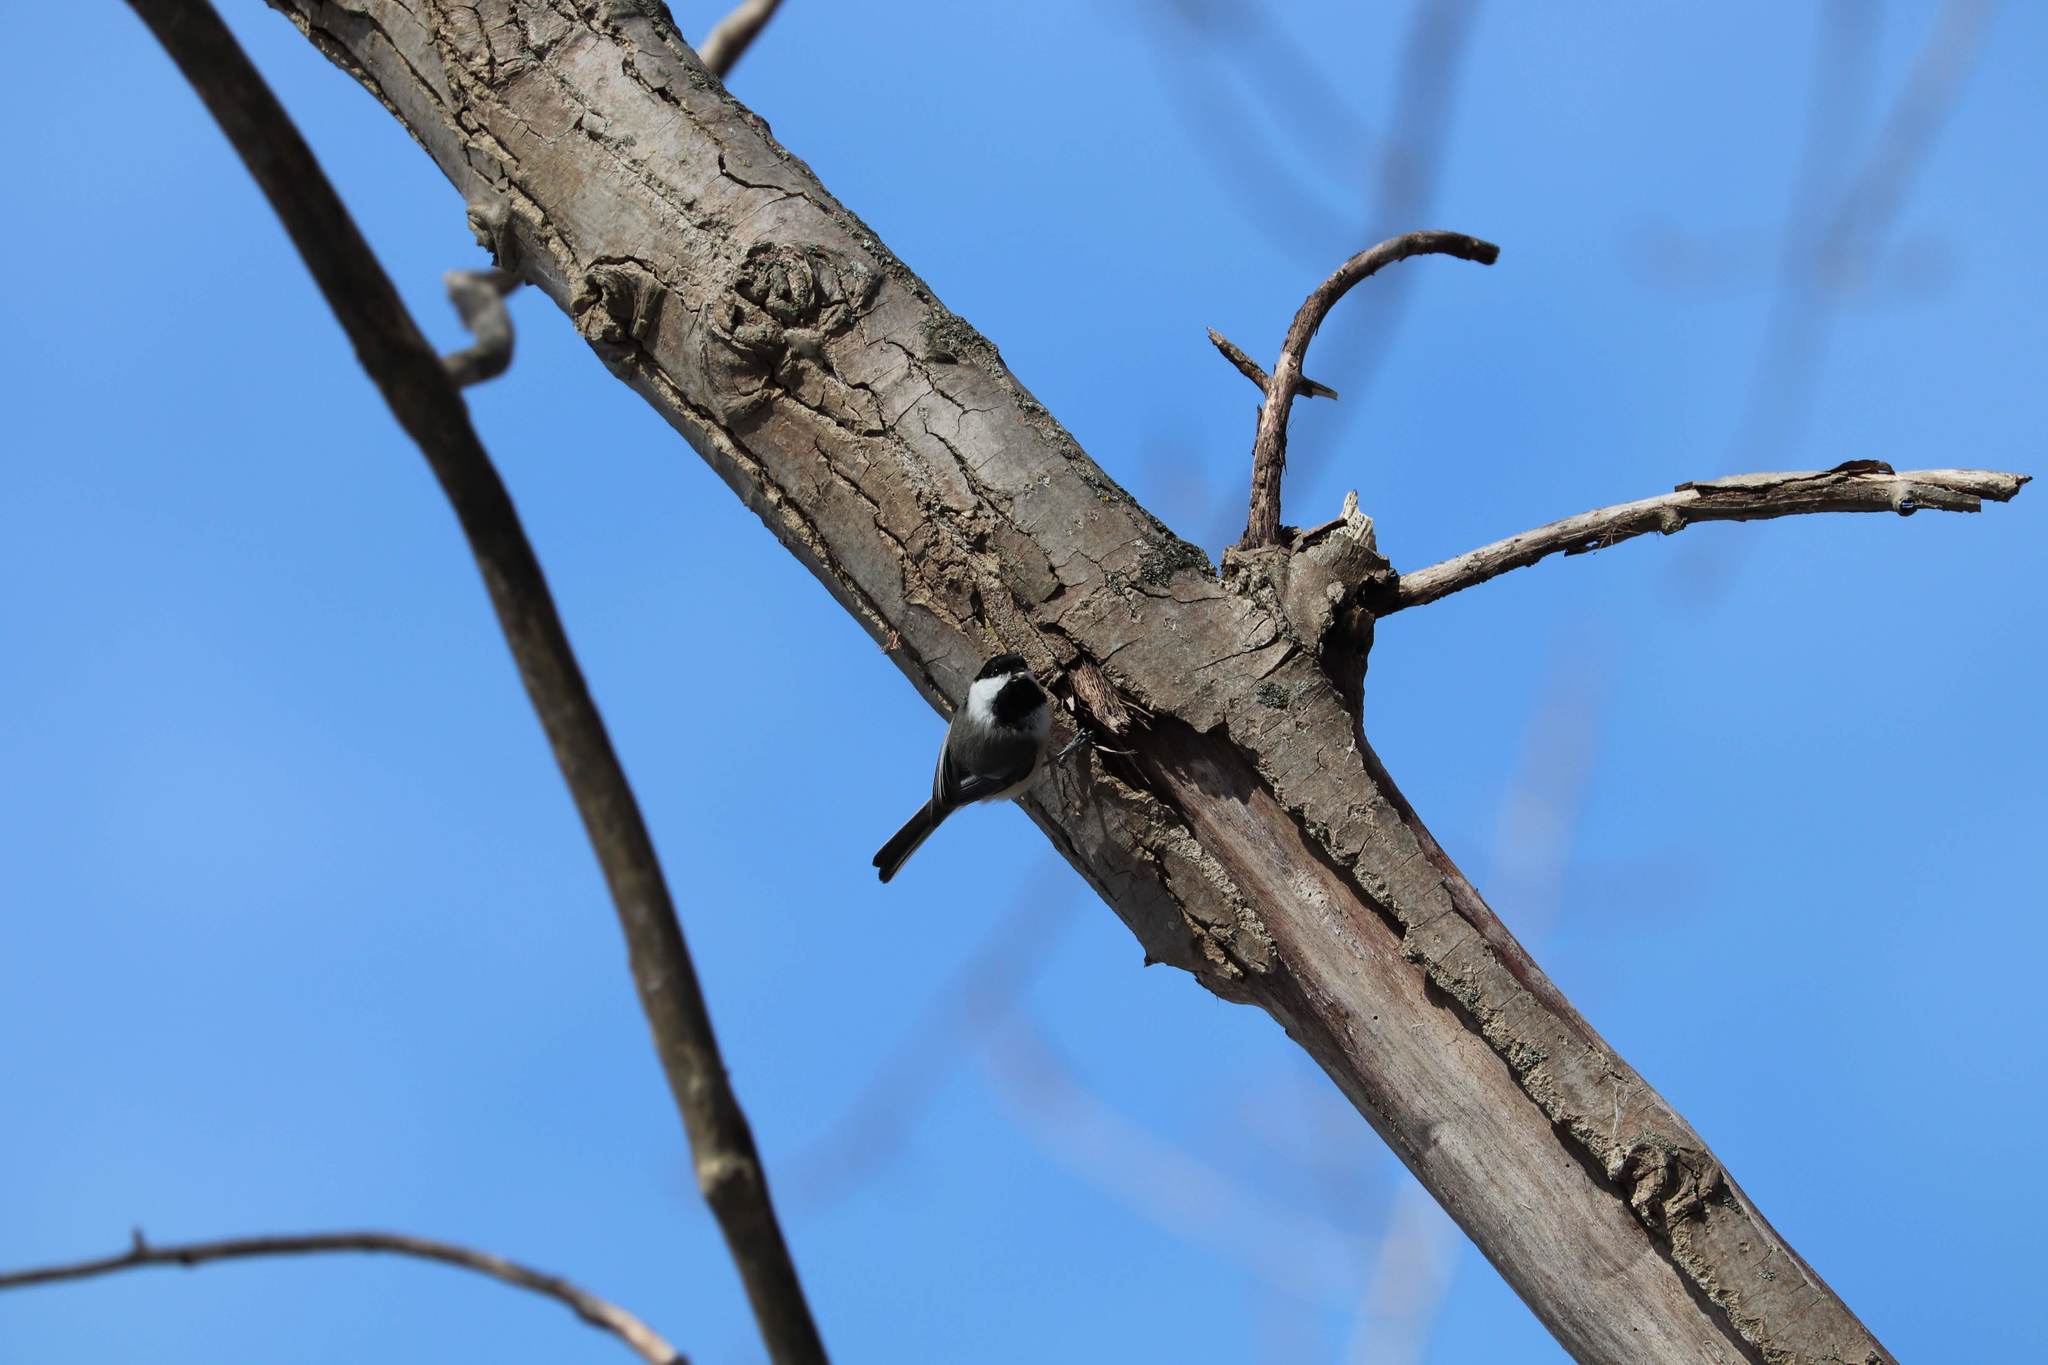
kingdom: Animalia
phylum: Chordata
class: Aves
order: Passeriformes
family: Paridae
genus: Poecile
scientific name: Poecile atricapillus
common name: Black-capped chickadee
